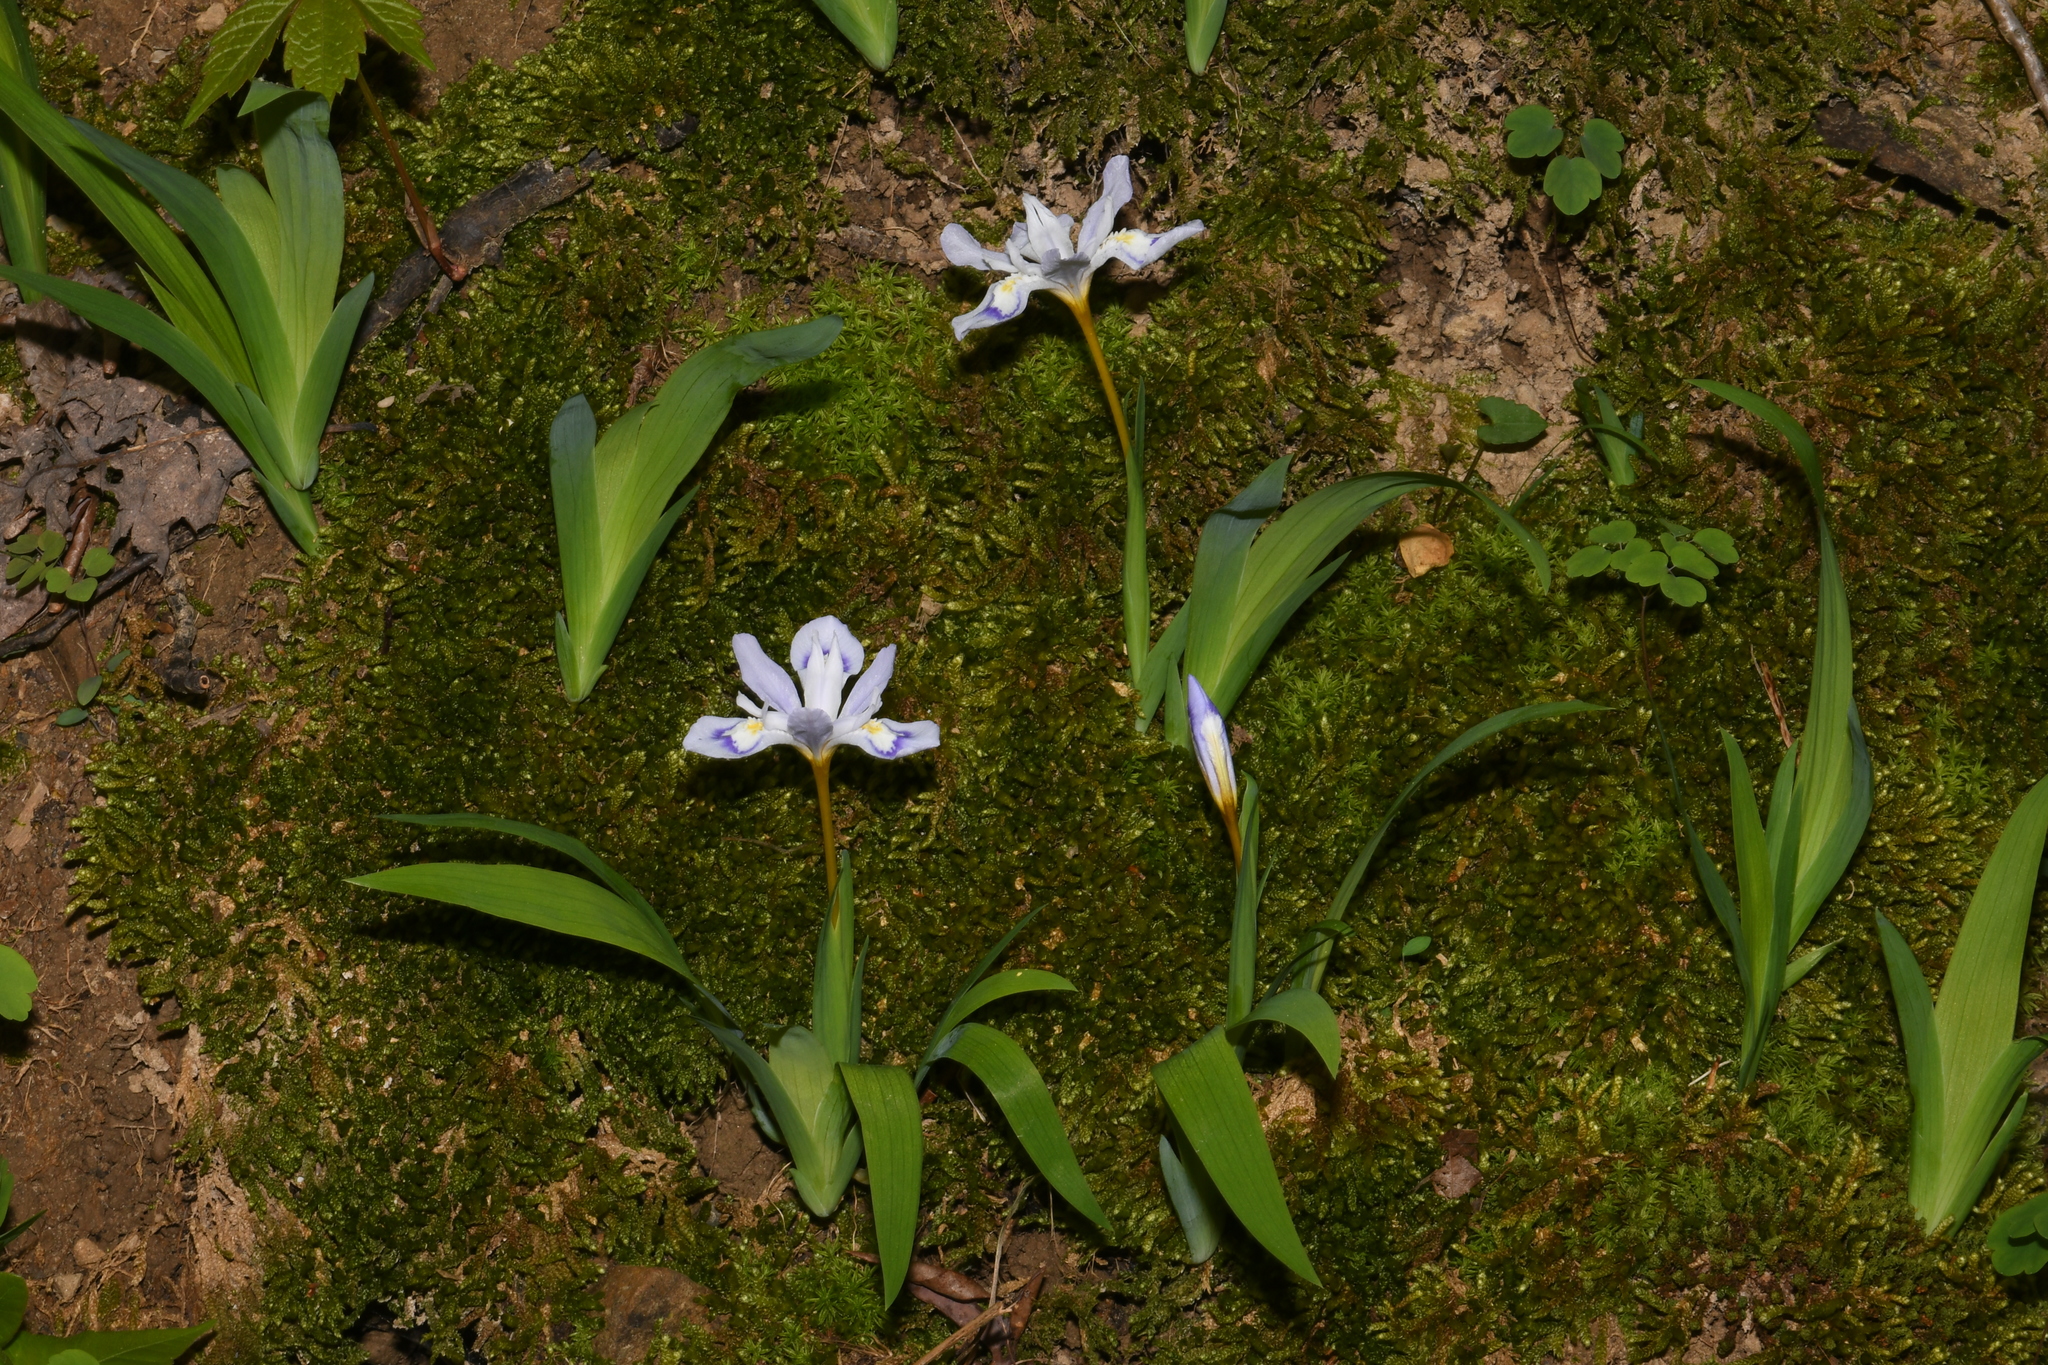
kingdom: Plantae
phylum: Tracheophyta
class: Liliopsida
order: Asparagales
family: Iridaceae
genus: Iris
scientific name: Iris cristata
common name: Crested iris
